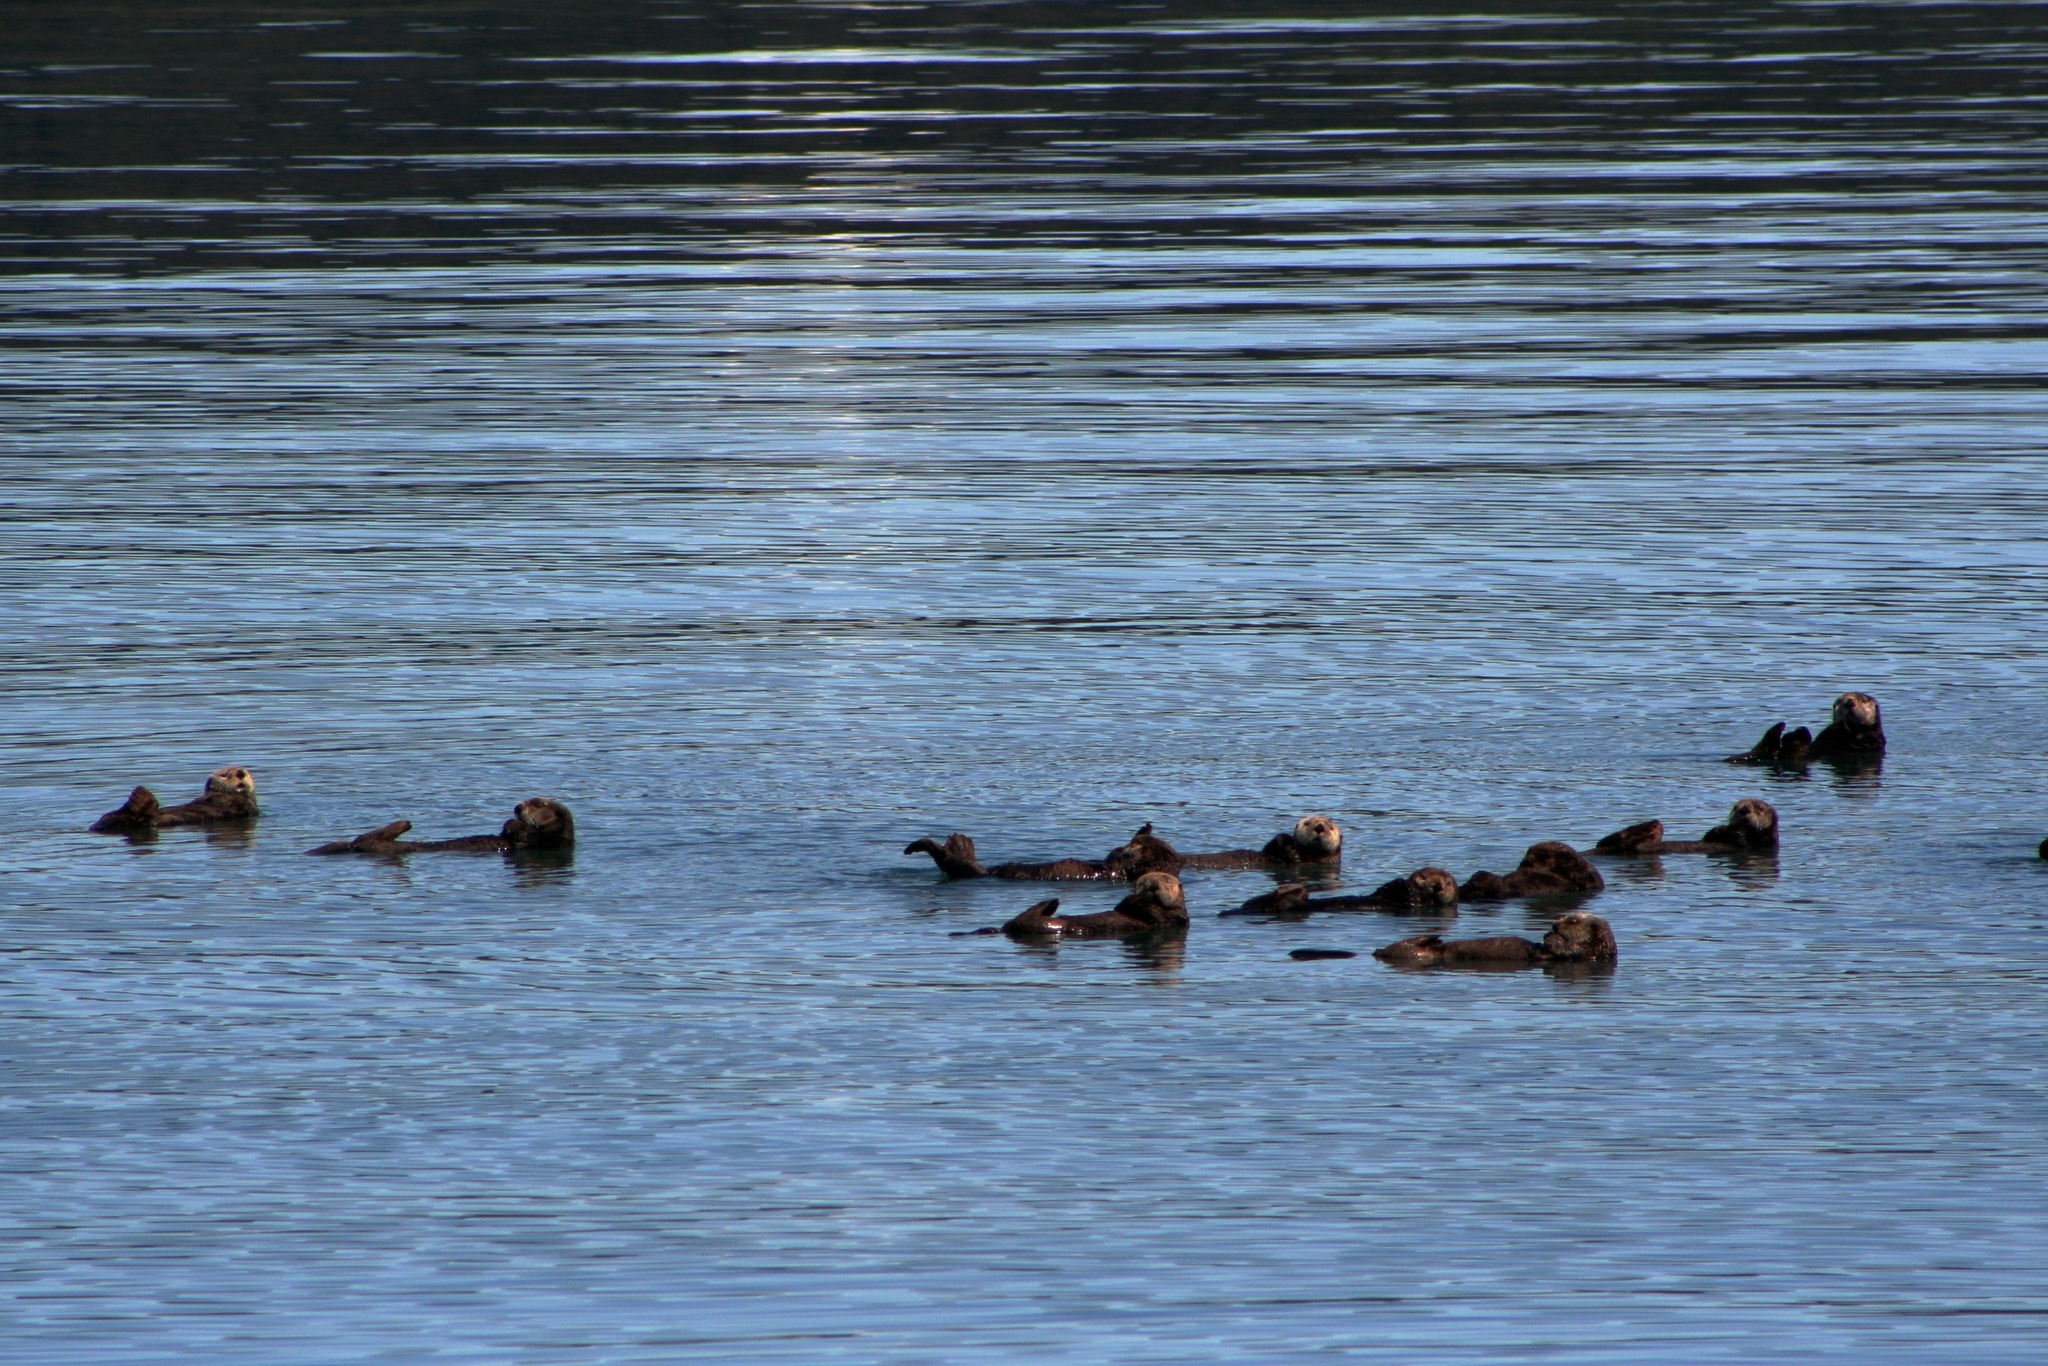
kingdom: Animalia
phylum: Chordata
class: Mammalia
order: Carnivora
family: Mustelidae
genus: Enhydra
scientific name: Enhydra lutris
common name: Sea otter
